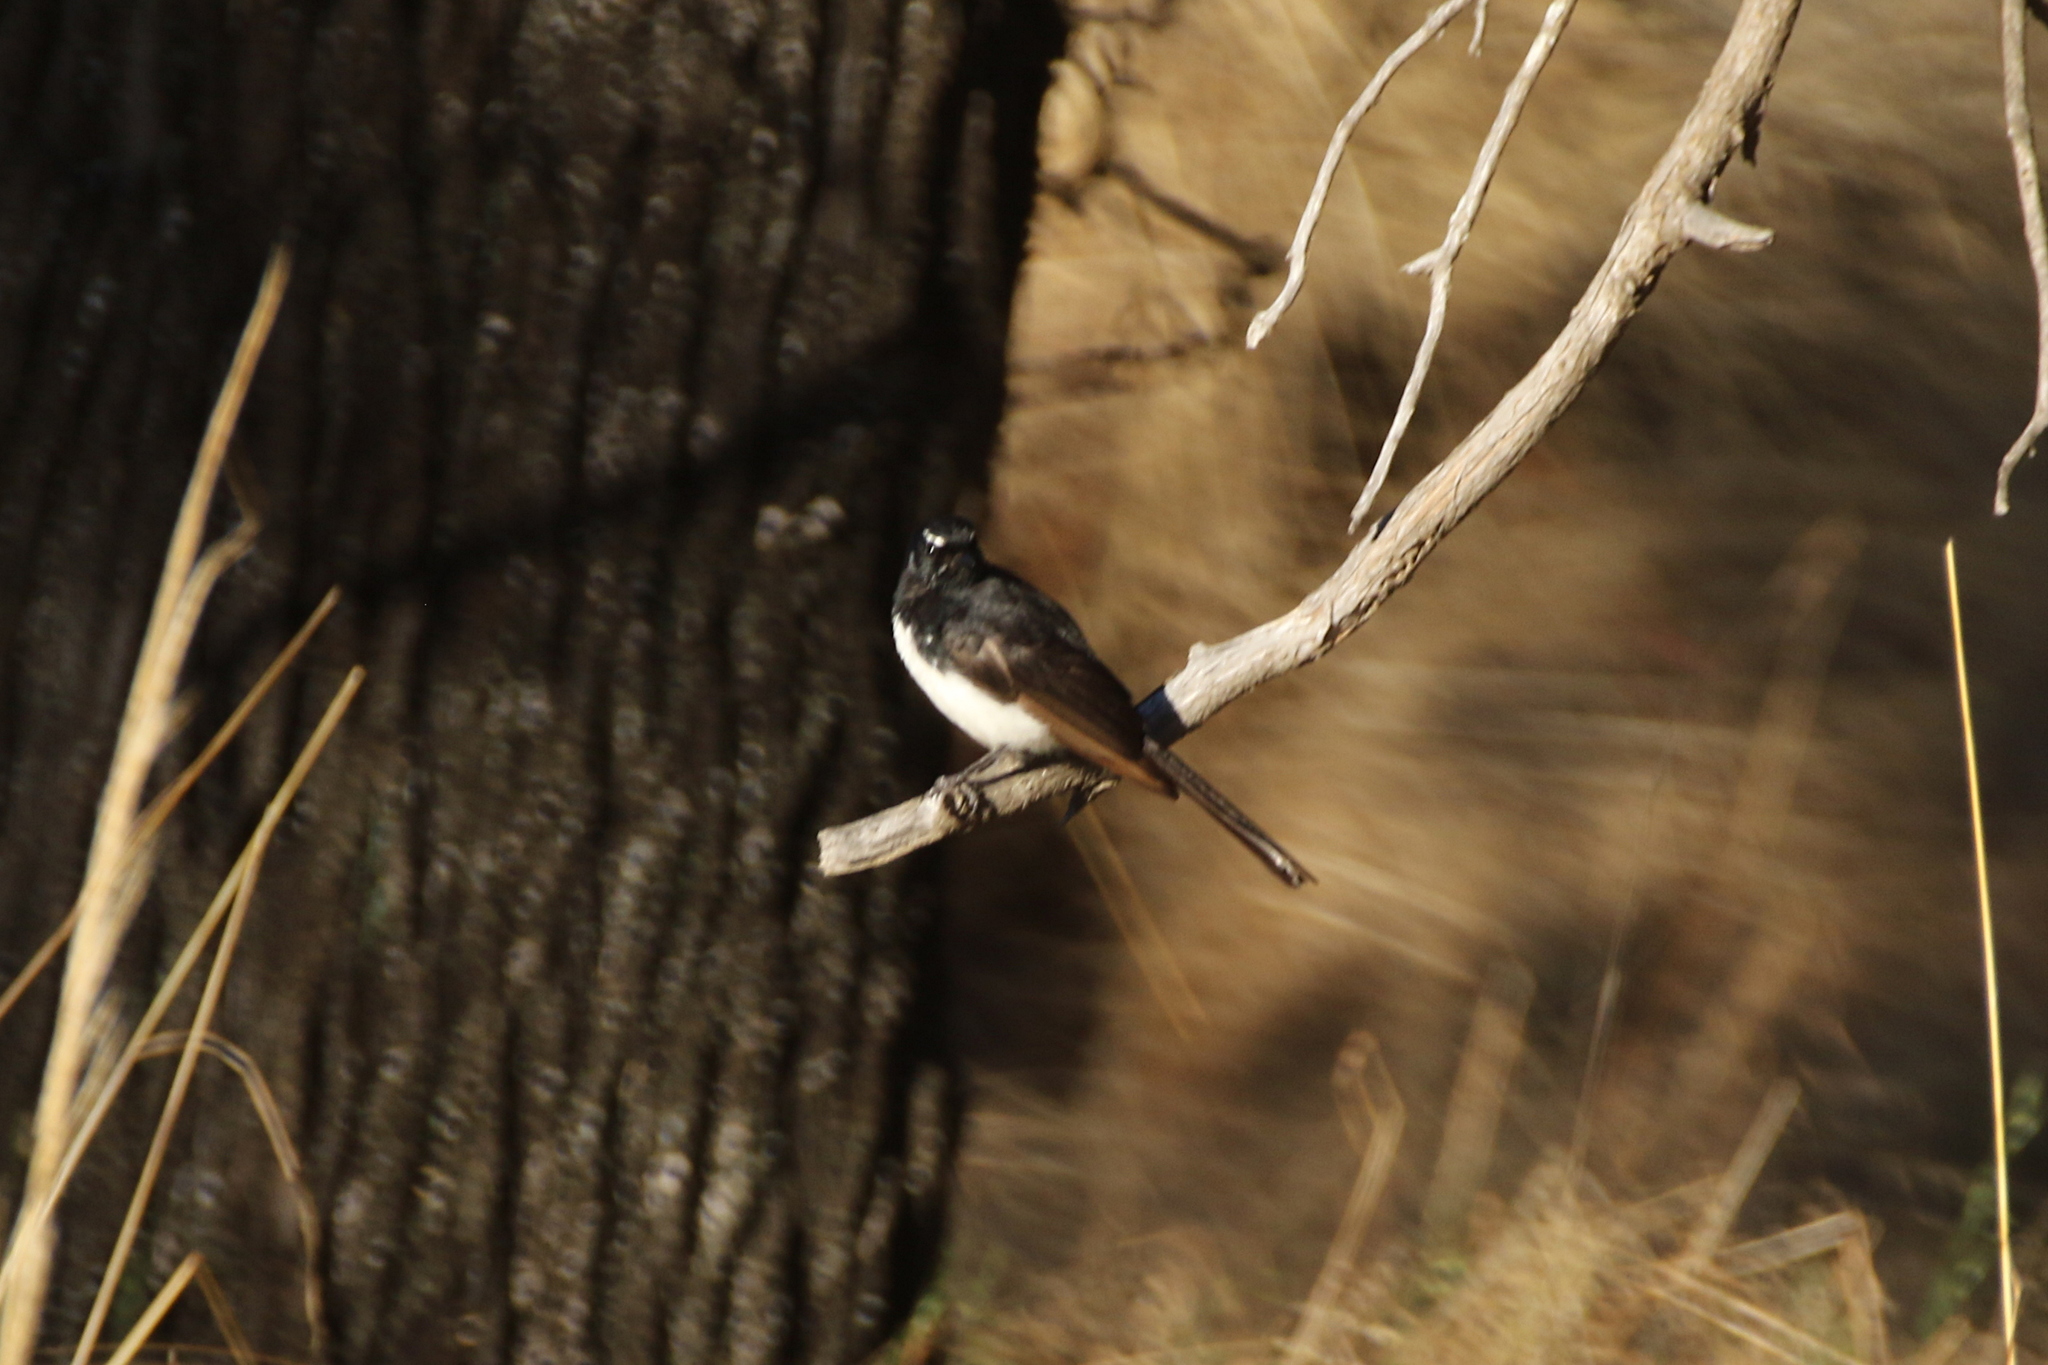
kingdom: Animalia
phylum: Chordata
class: Aves
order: Passeriformes
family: Rhipiduridae
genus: Rhipidura
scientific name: Rhipidura leucophrys
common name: Willie wagtail
